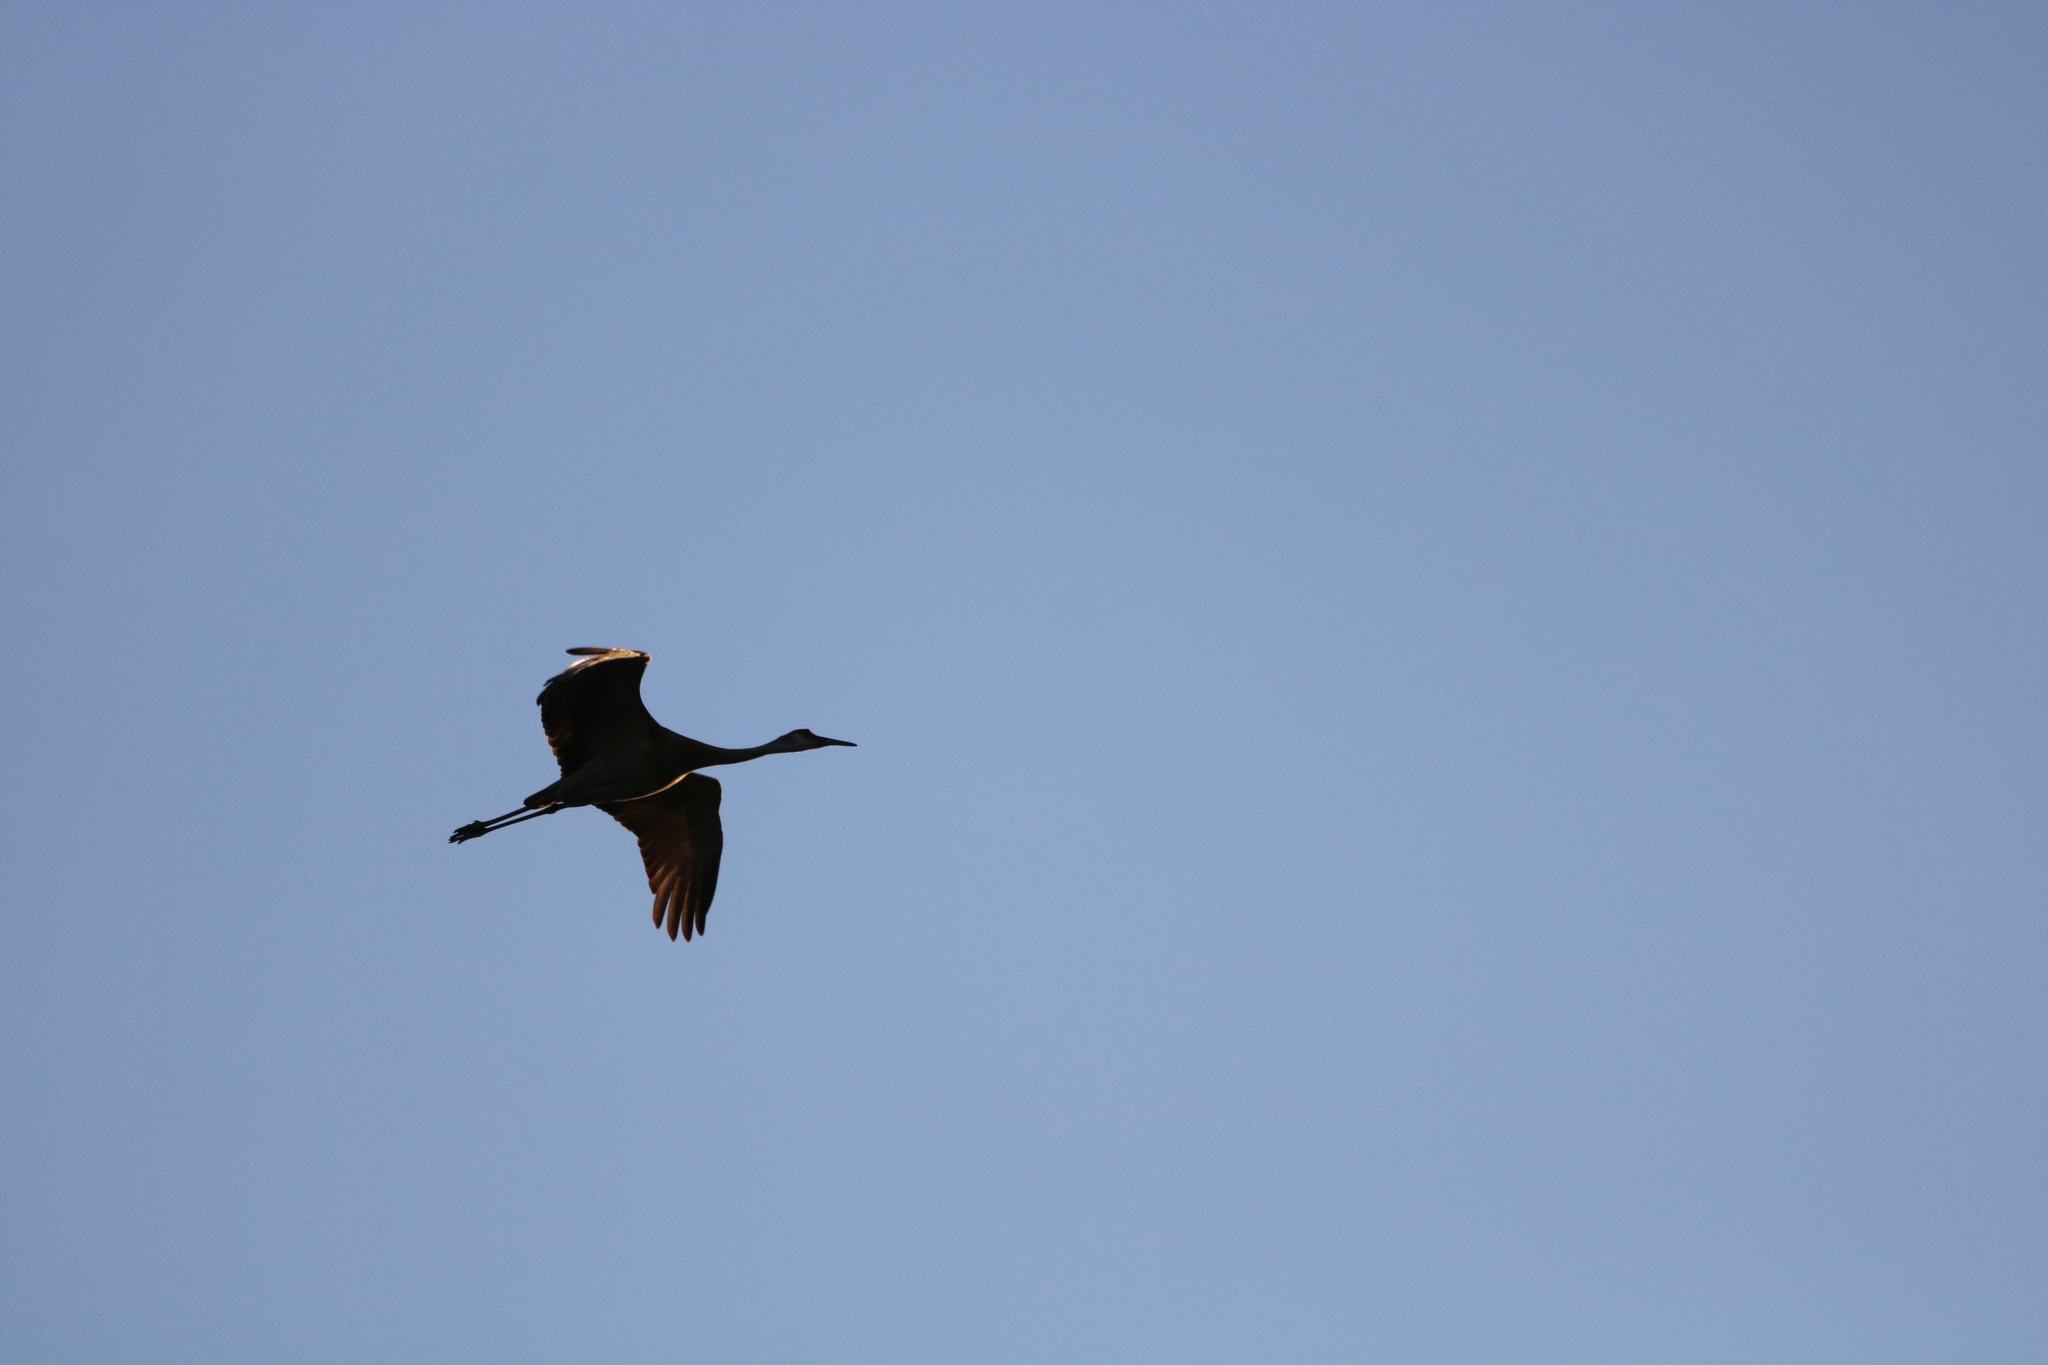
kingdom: Animalia
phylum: Chordata
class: Aves
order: Gruiformes
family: Gruidae
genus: Grus
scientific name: Grus canadensis
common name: Sandhill crane
